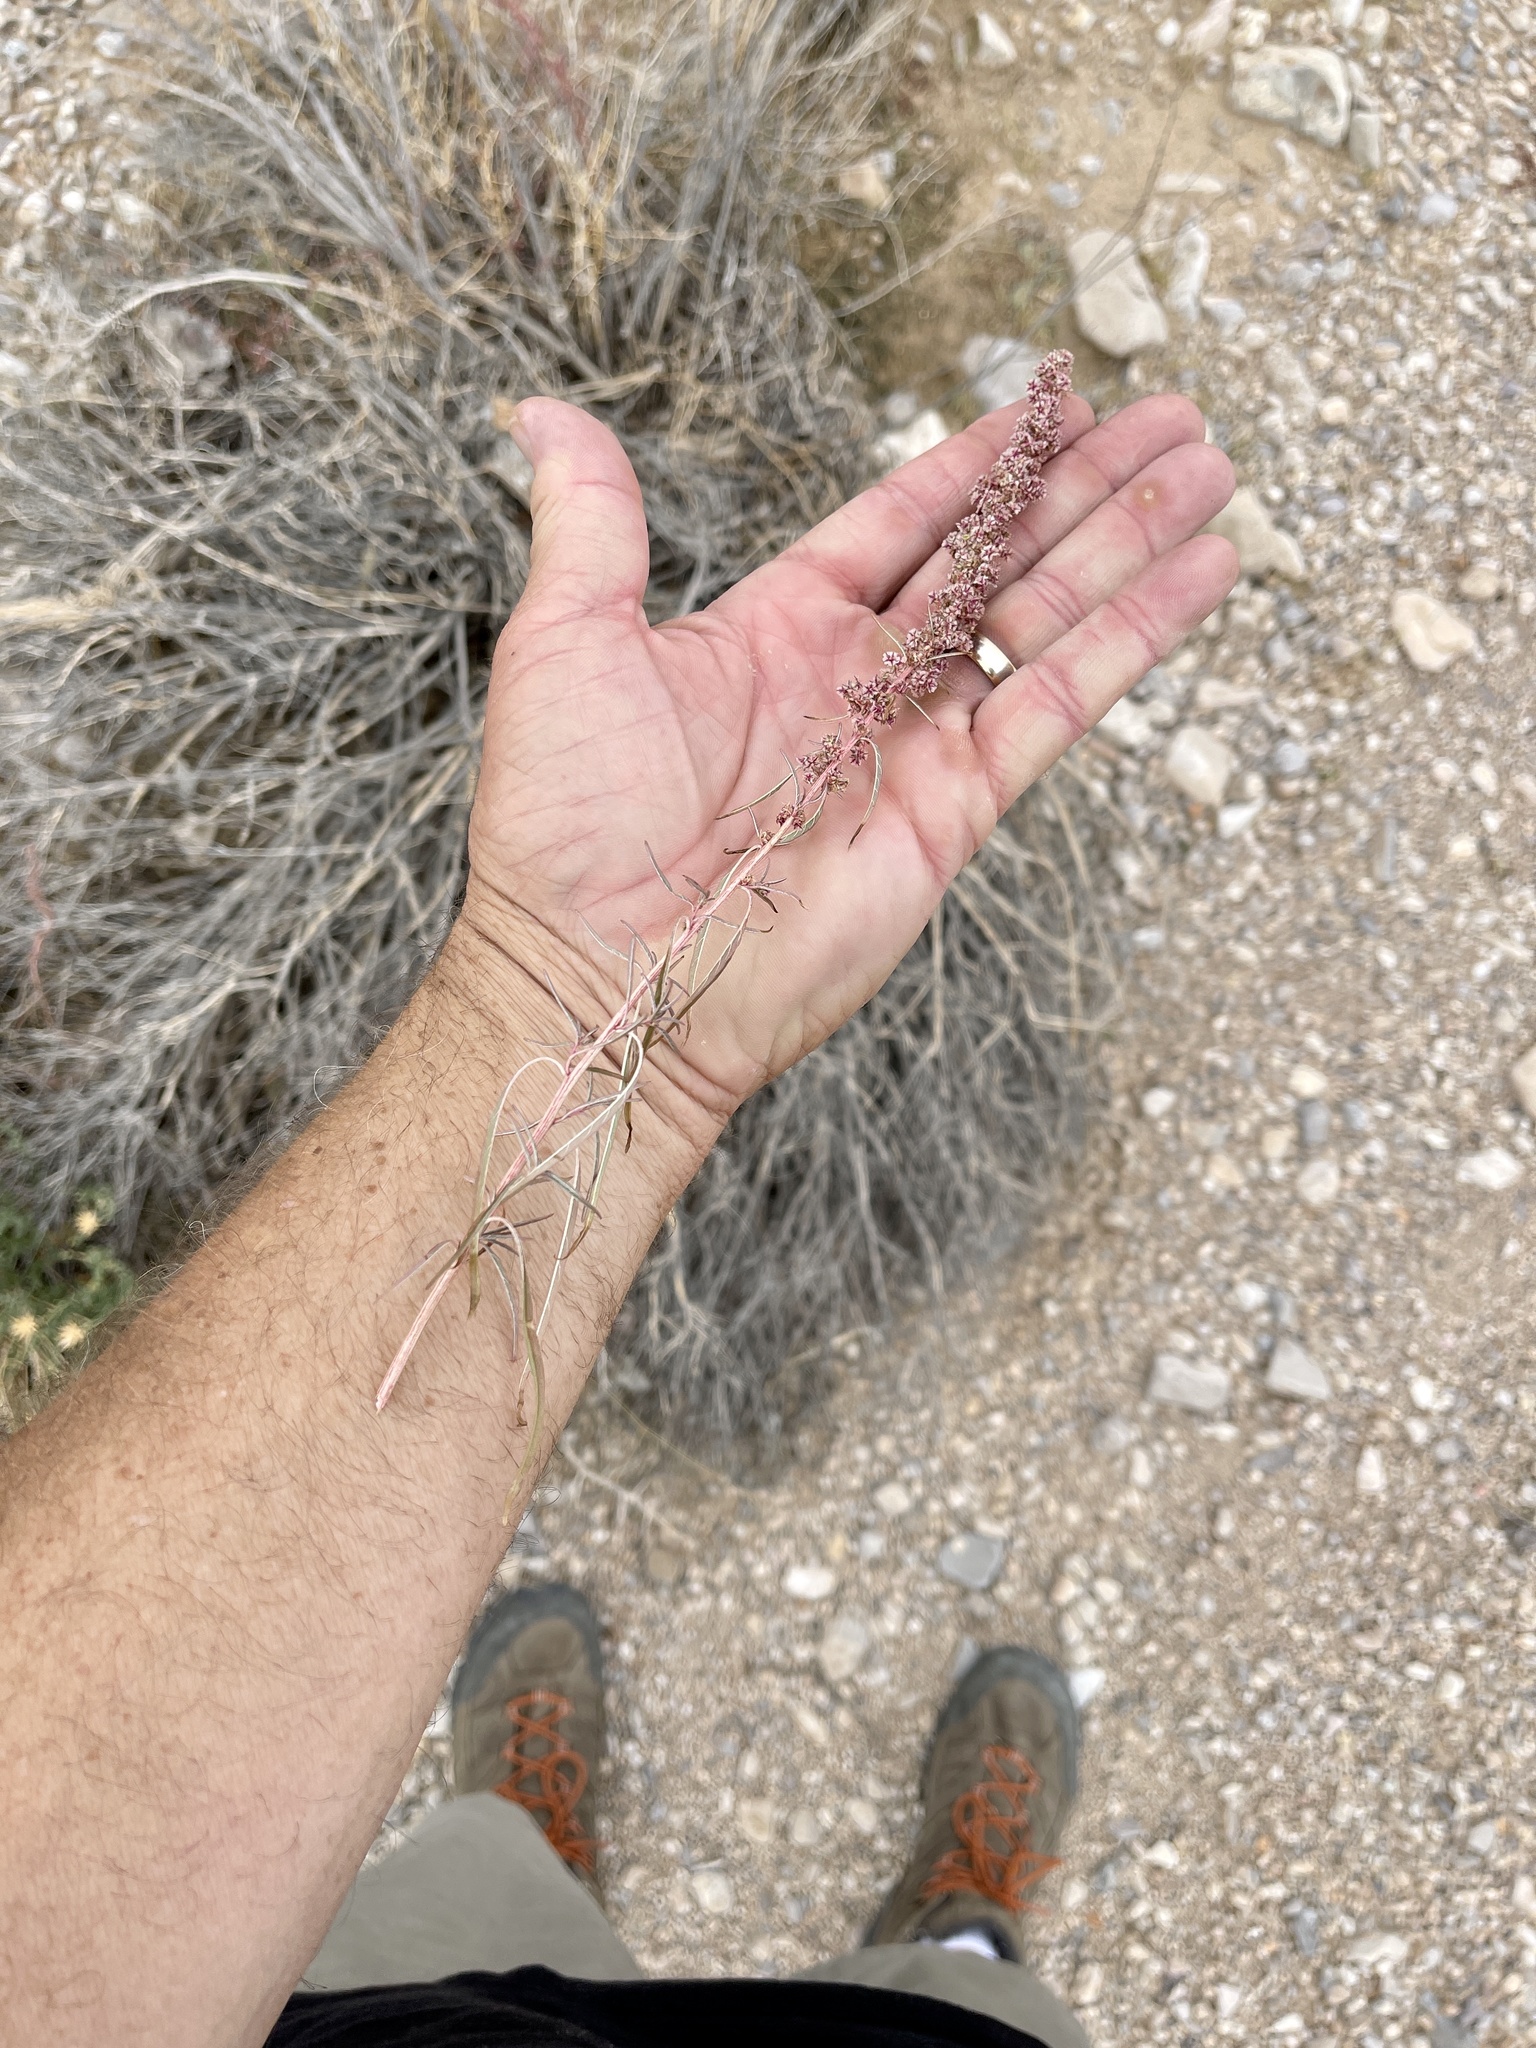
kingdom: Plantae
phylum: Tracheophyta
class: Magnoliopsida
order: Caryophyllales
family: Amaranthaceae
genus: Amaranthus
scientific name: Amaranthus fimbriatus
